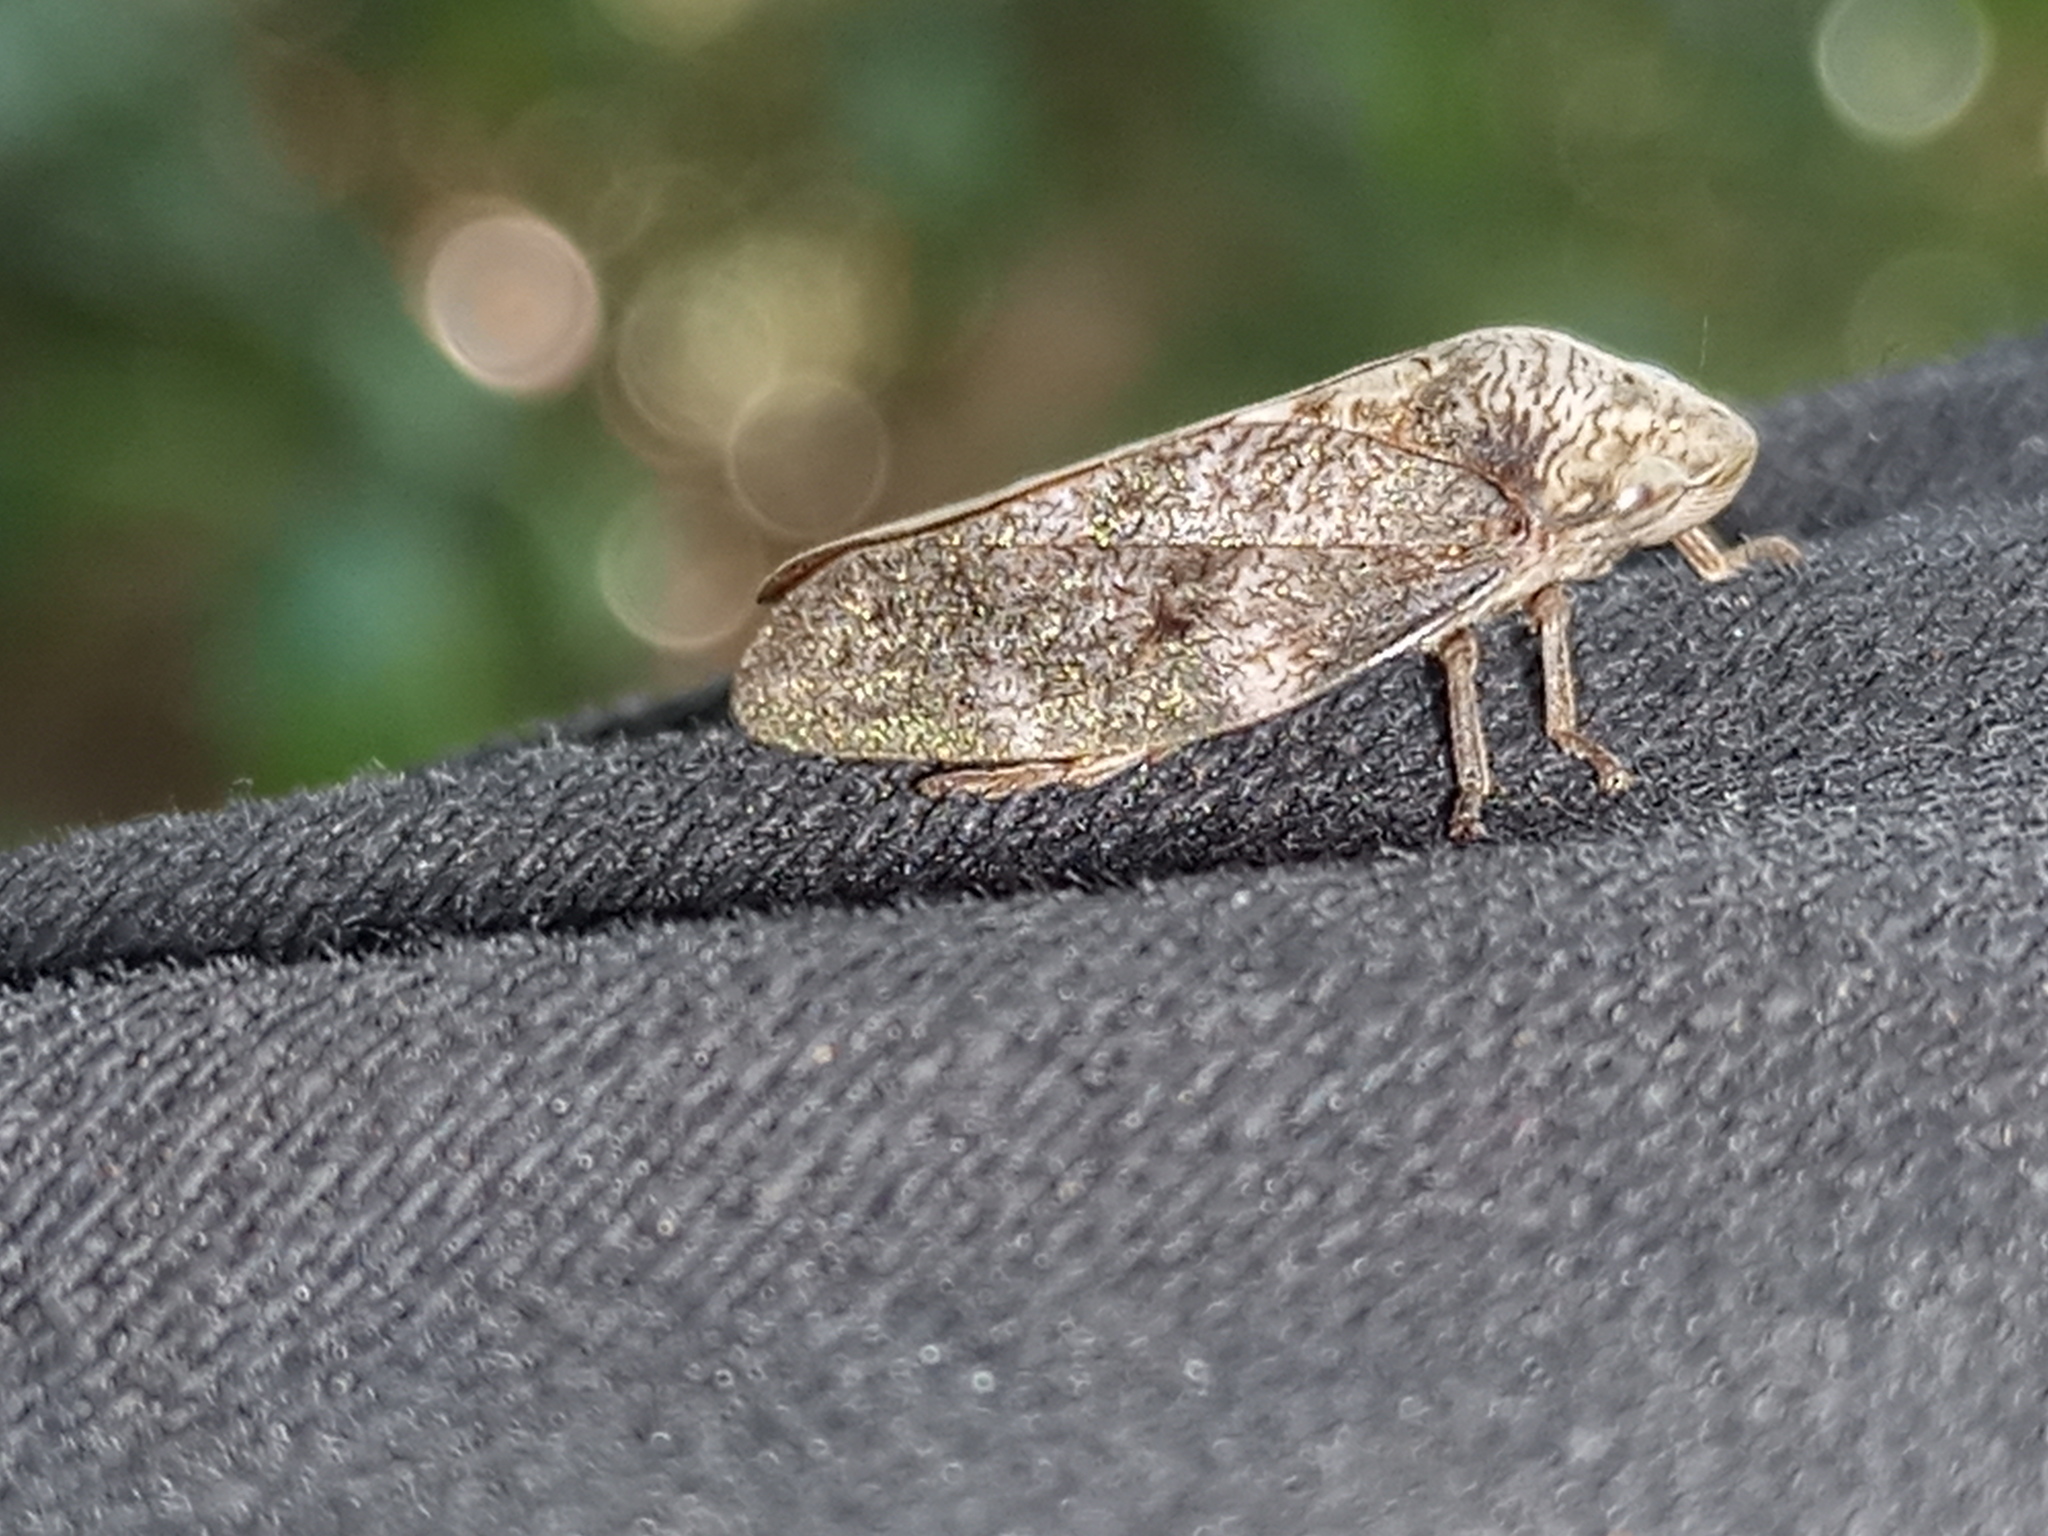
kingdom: Animalia
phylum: Arthropoda
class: Insecta
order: Hemiptera
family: Aphrophoridae
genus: Cephisus
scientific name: Cephisus siccifolius
